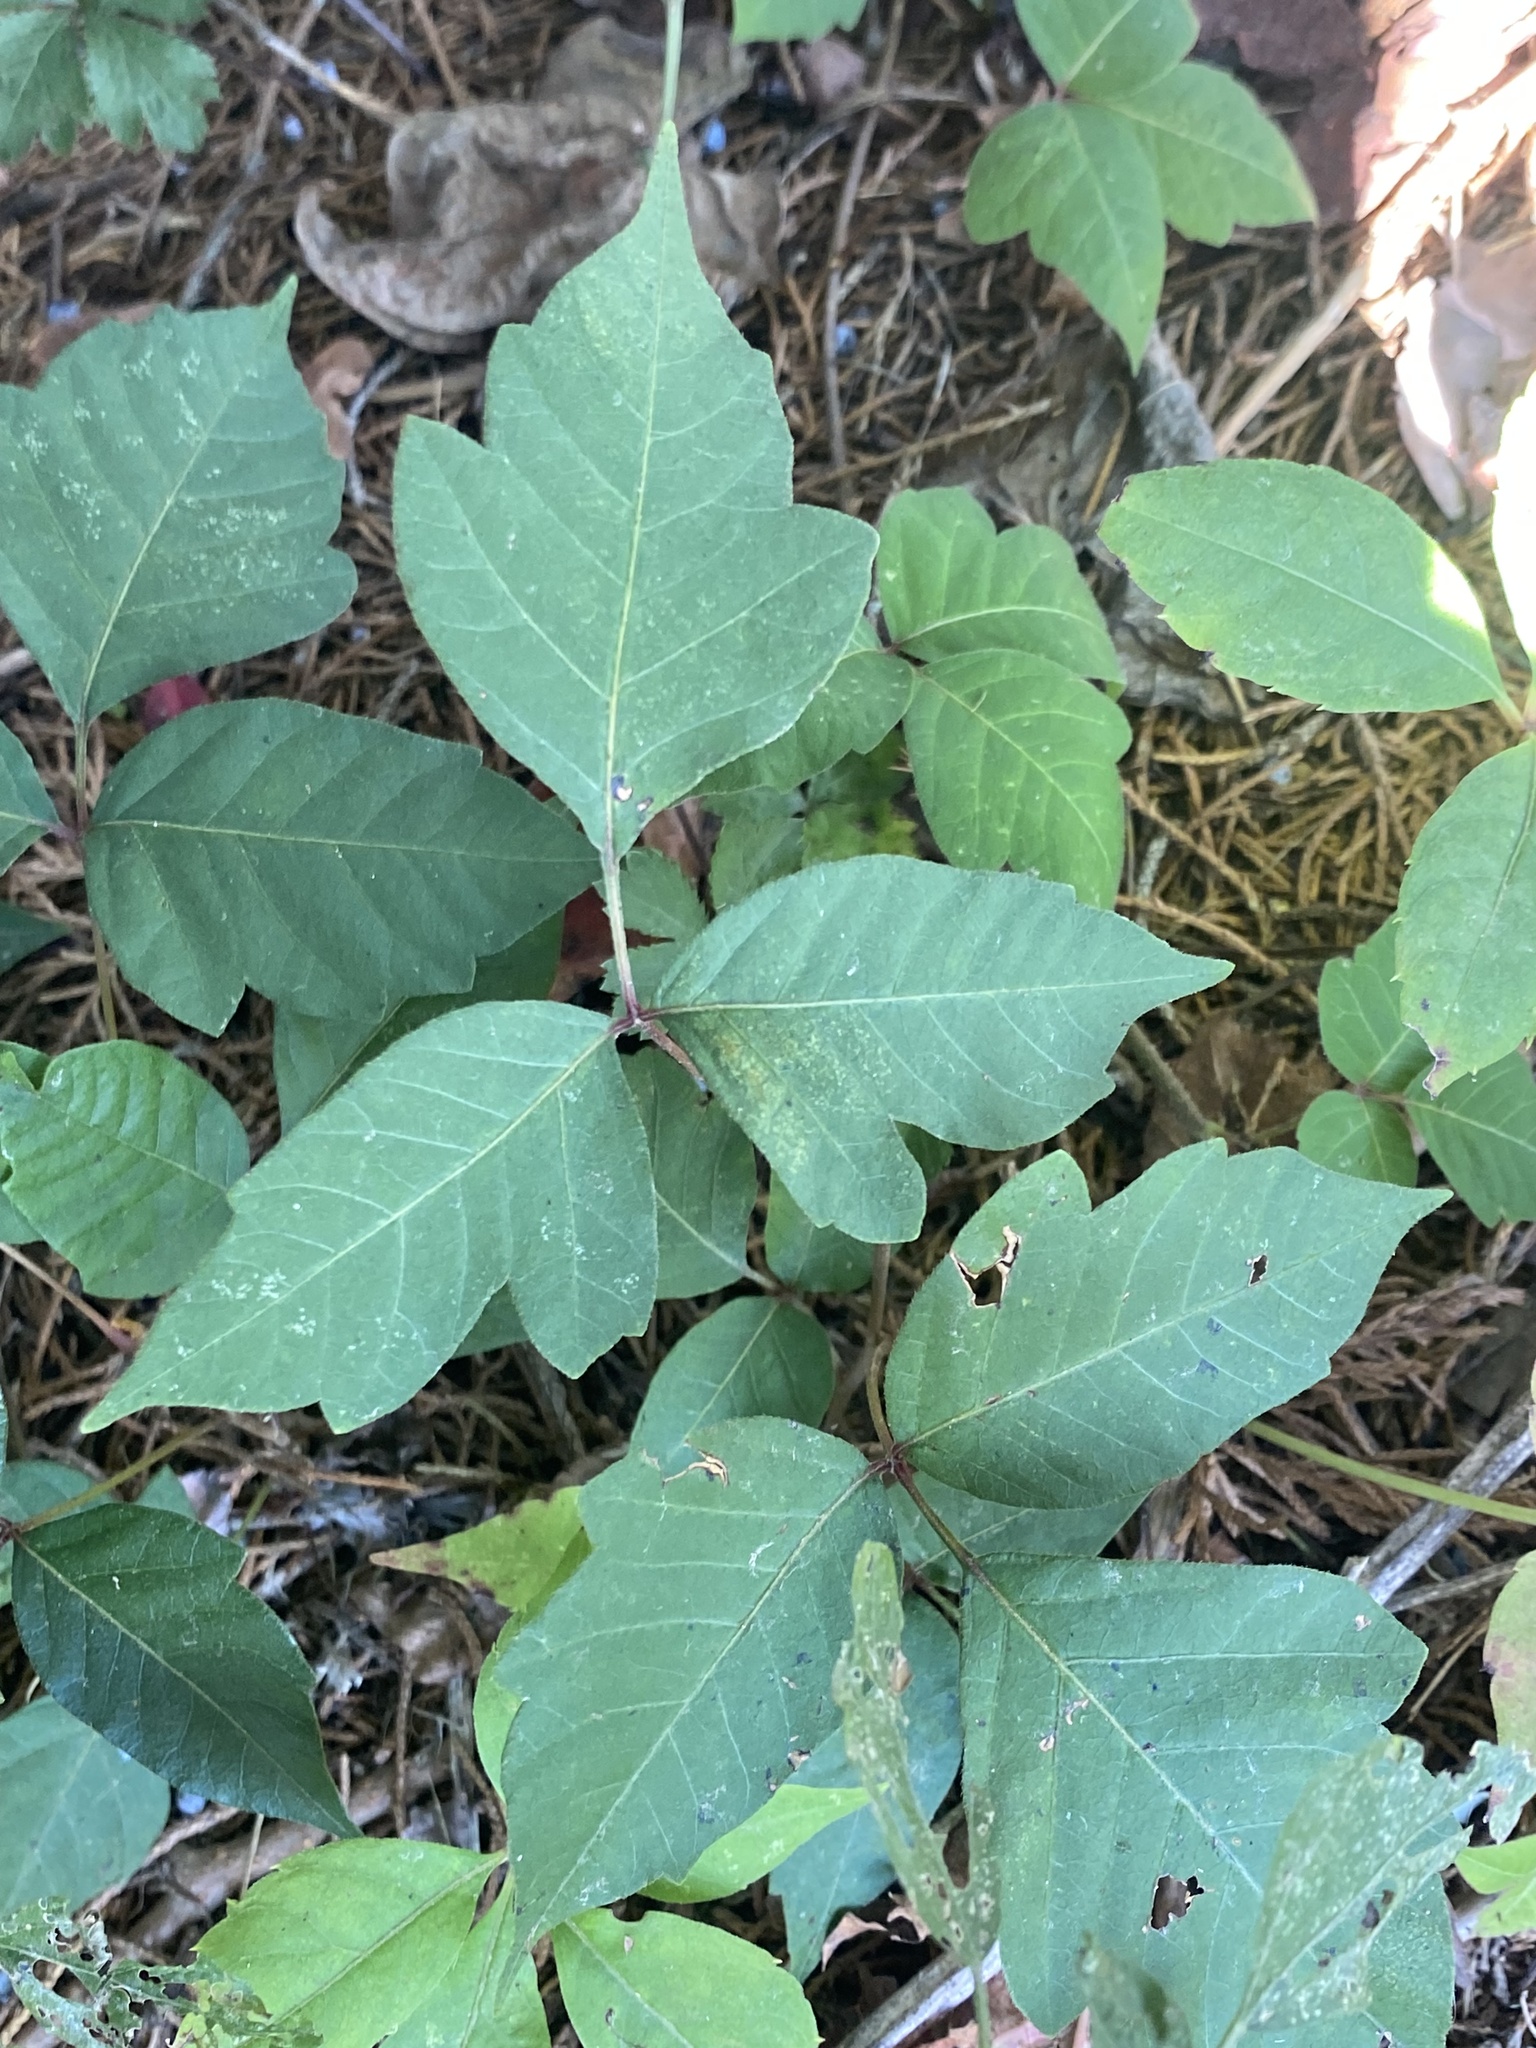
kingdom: Plantae
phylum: Tracheophyta
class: Magnoliopsida
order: Sapindales
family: Anacardiaceae
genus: Toxicodendron
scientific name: Toxicodendron radicans
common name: Poison ivy
